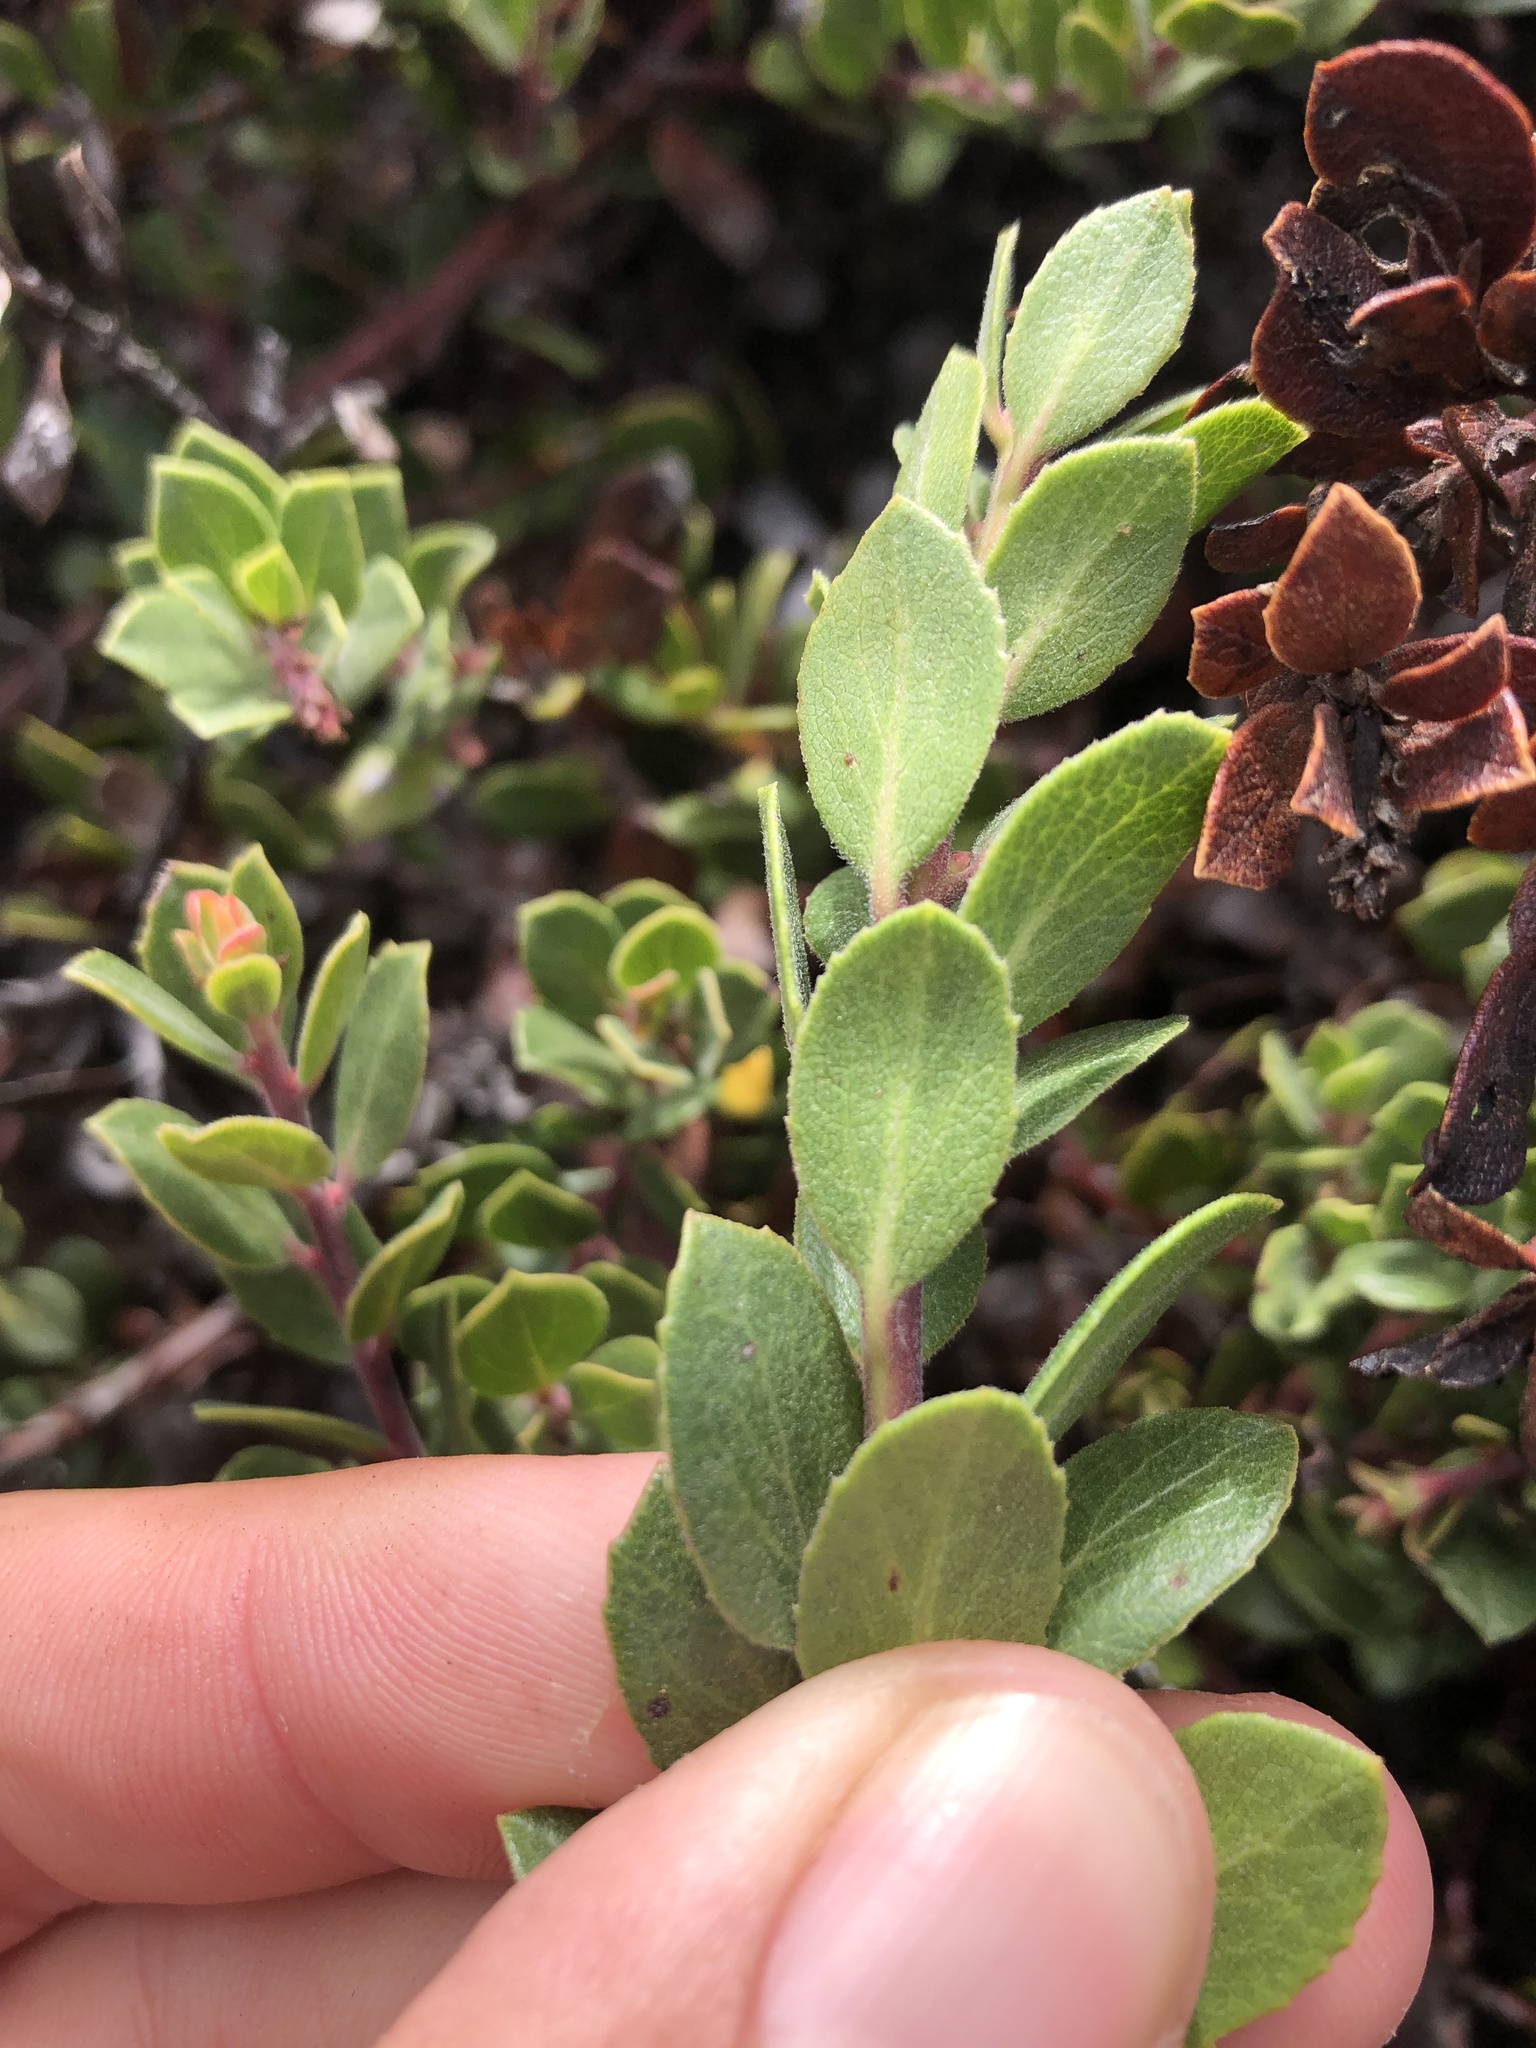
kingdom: Plantae
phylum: Tracheophyta
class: Magnoliopsida
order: Ericales
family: Ericaceae
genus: Arctostaphylos
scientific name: Arctostaphylos pacifica
